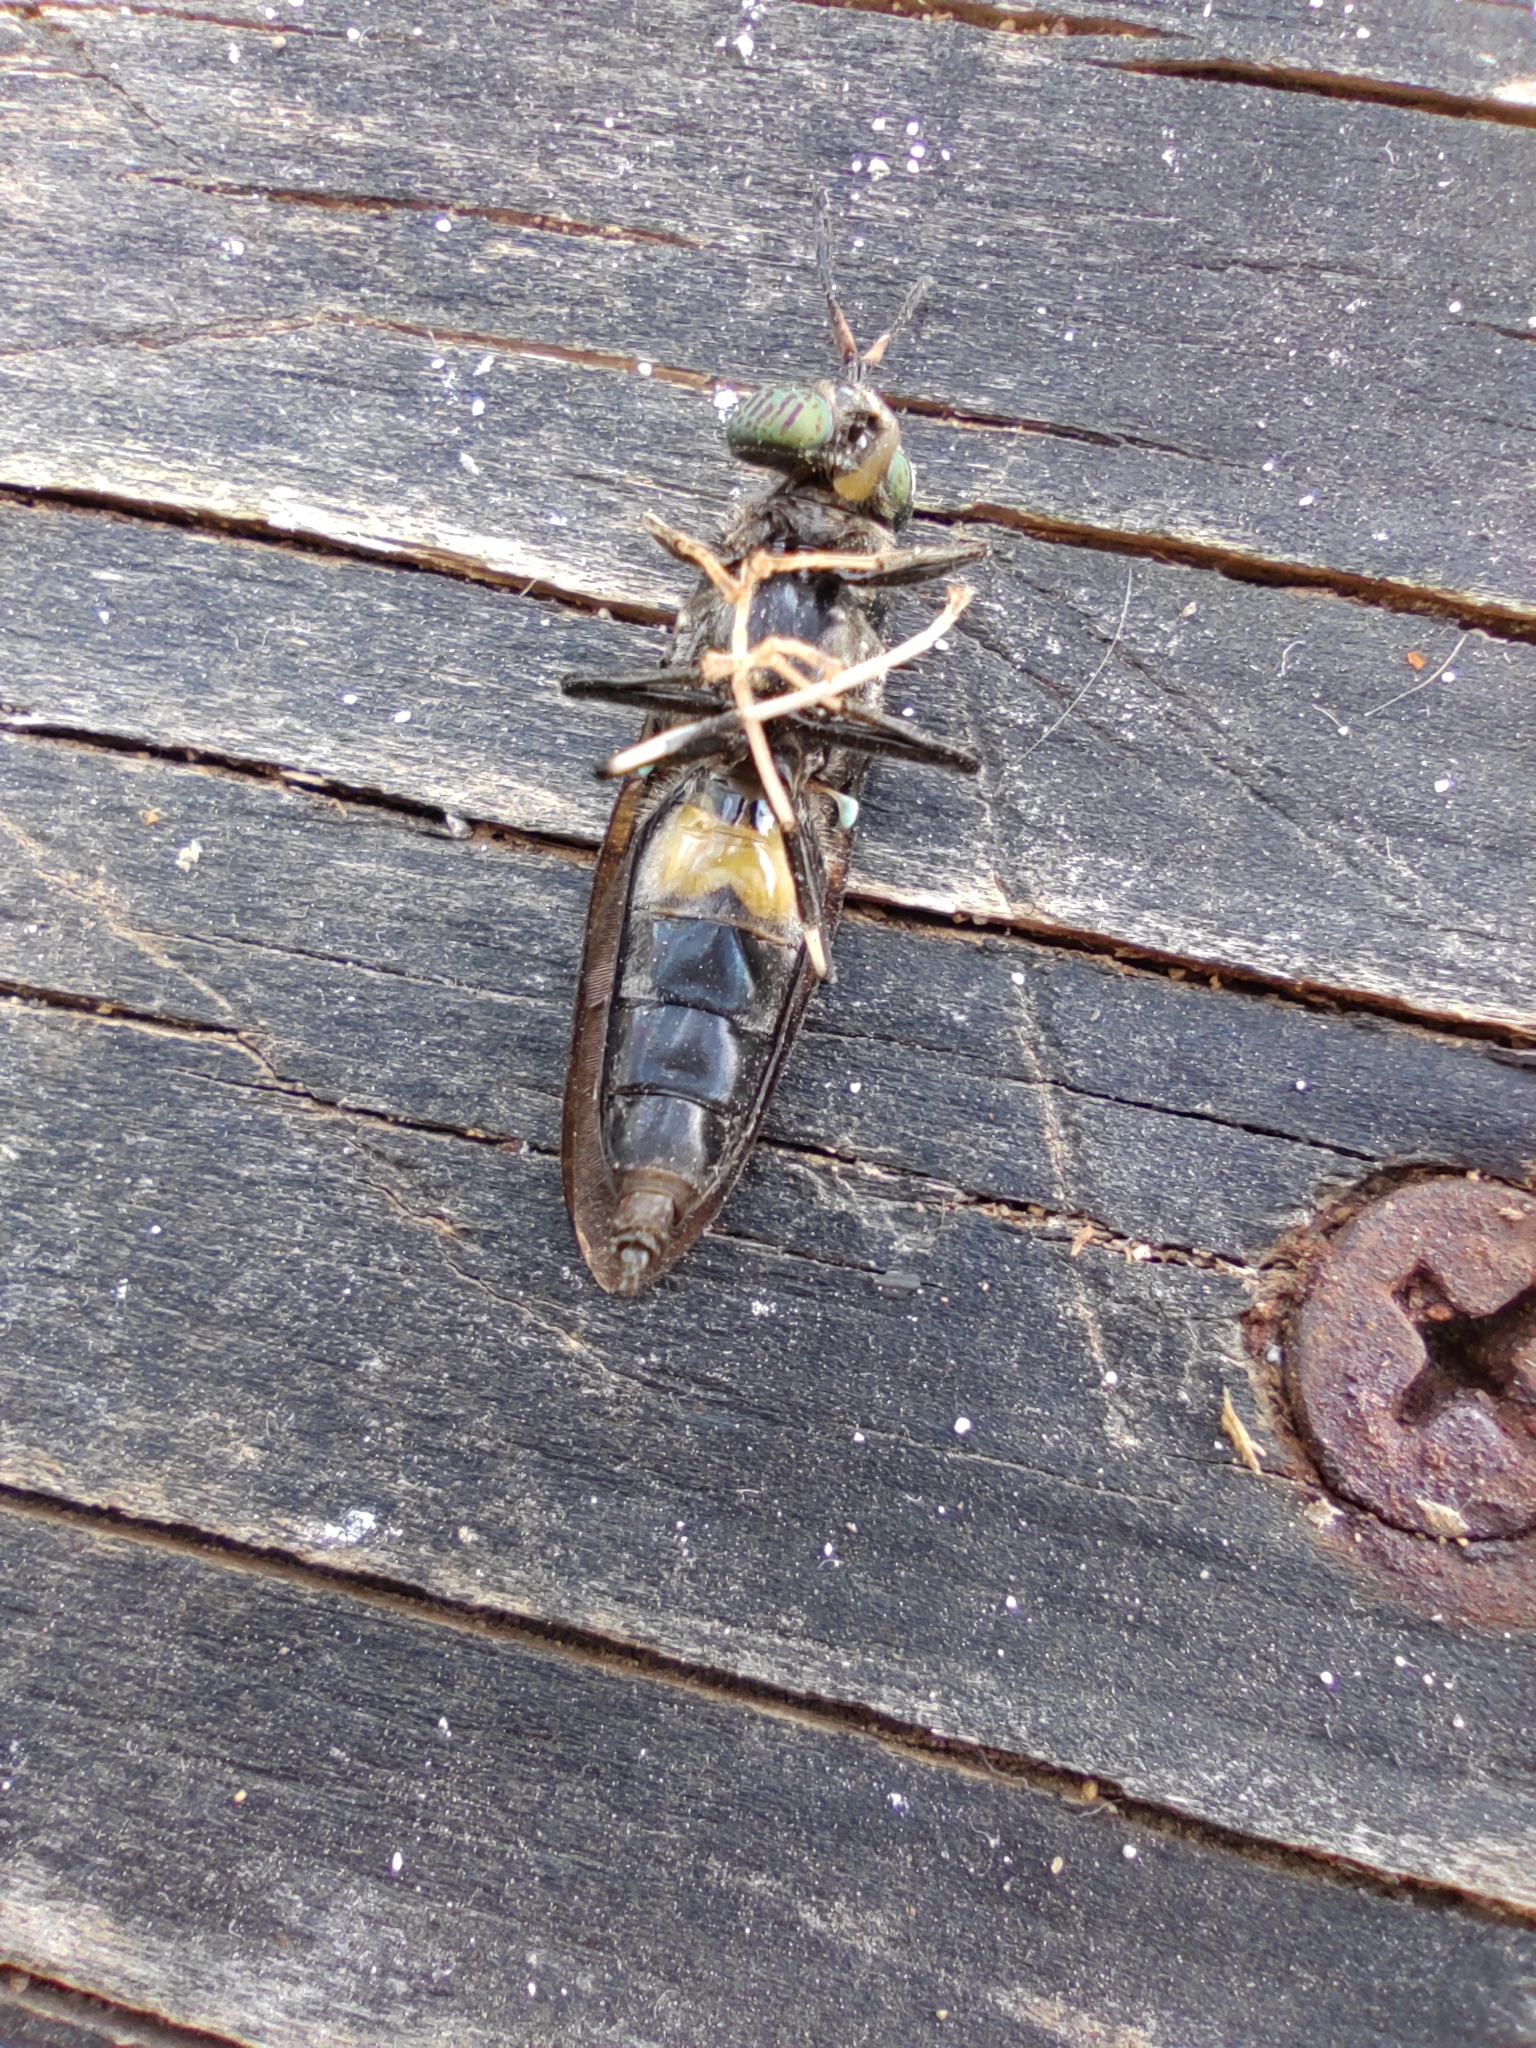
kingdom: Animalia
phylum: Arthropoda
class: Insecta
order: Diptera
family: Stratiomyidae
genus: Hermetia
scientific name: Hermetia illucens
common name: Black soldier fly
